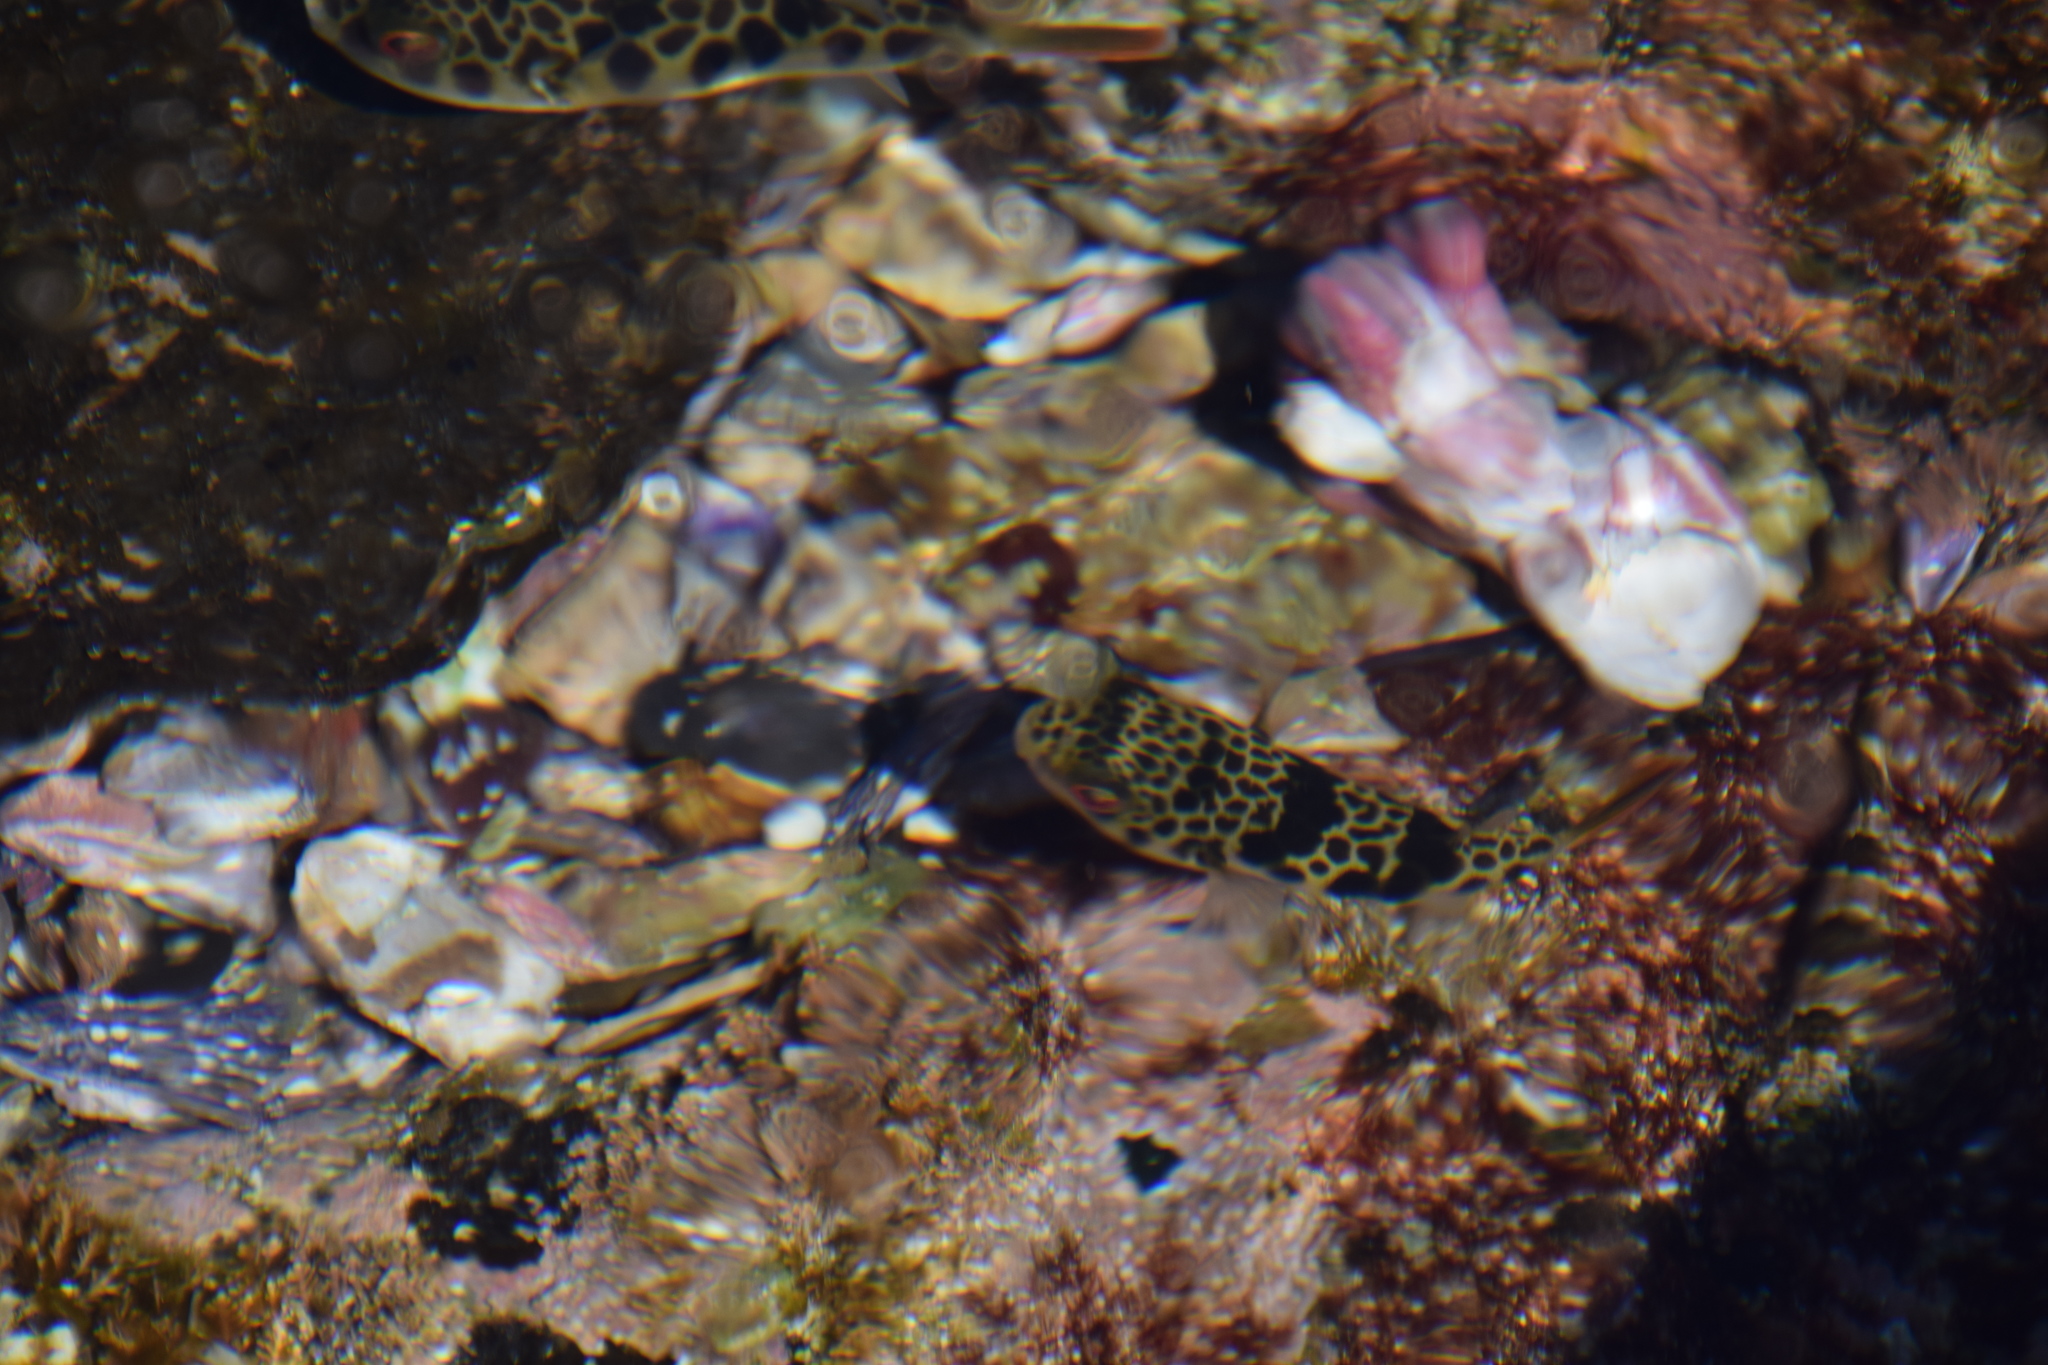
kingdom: Animalia
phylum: Chordata
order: Tetraodontiformes
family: Tetraodontidae
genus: Tetractenos
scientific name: Tetractenos glaber
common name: Smooth toadfish
